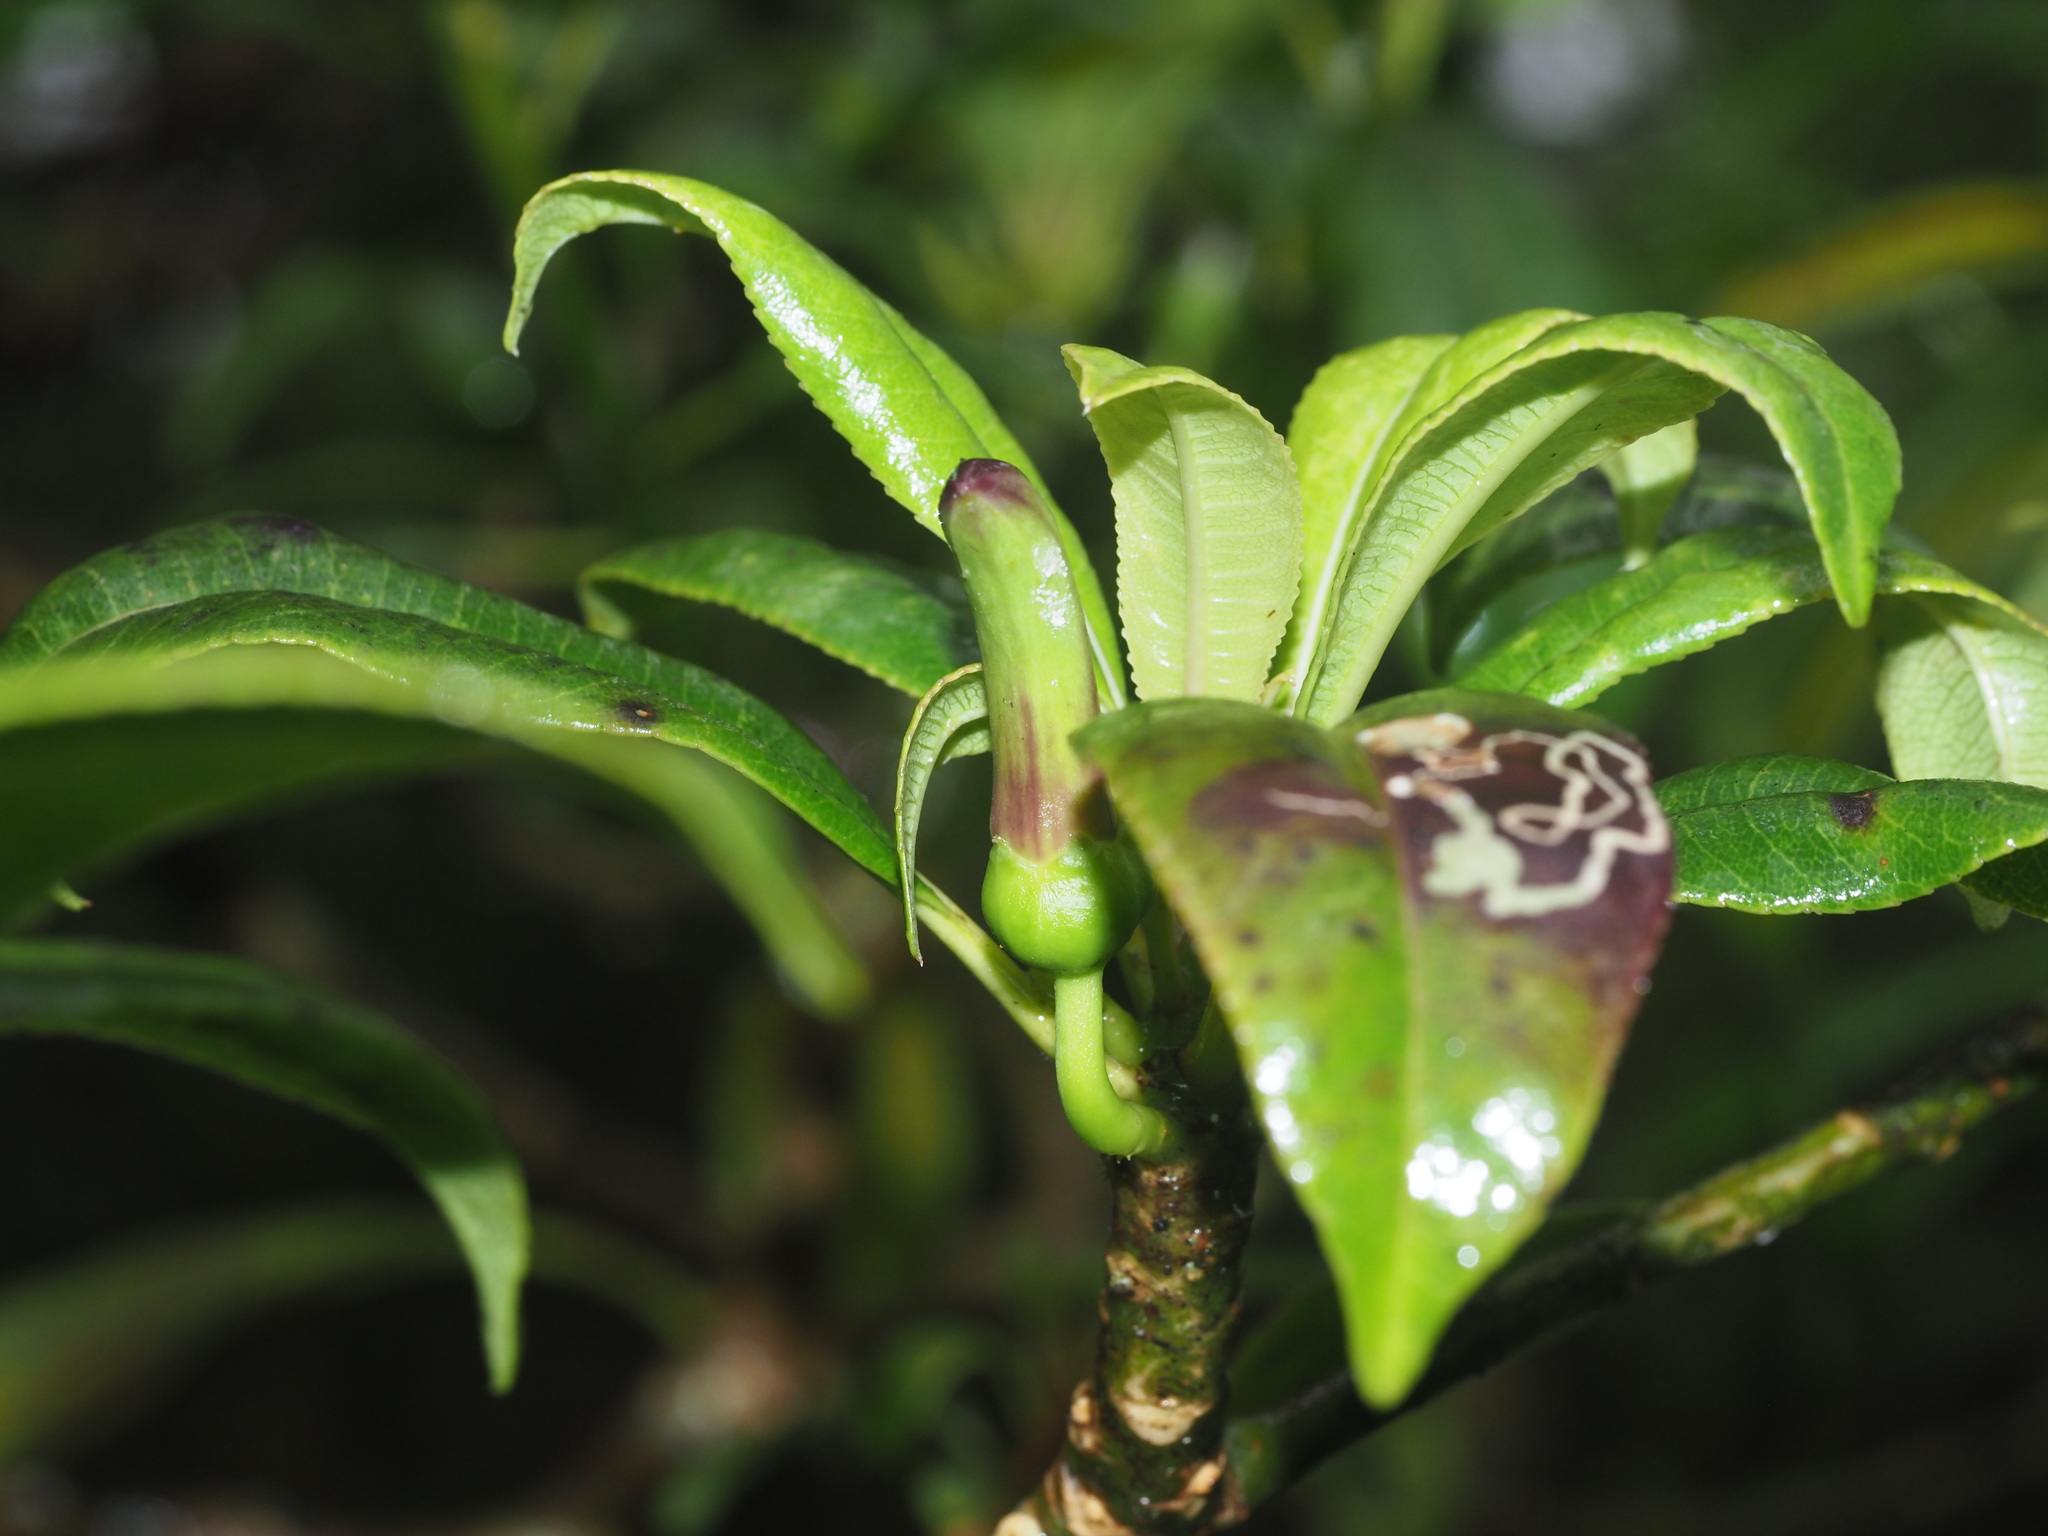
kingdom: Plantae
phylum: Tracheophyta
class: Magnoliopsida
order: Asterales
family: Campanulaceae
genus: Clermontia
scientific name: Clermontia fauriei
